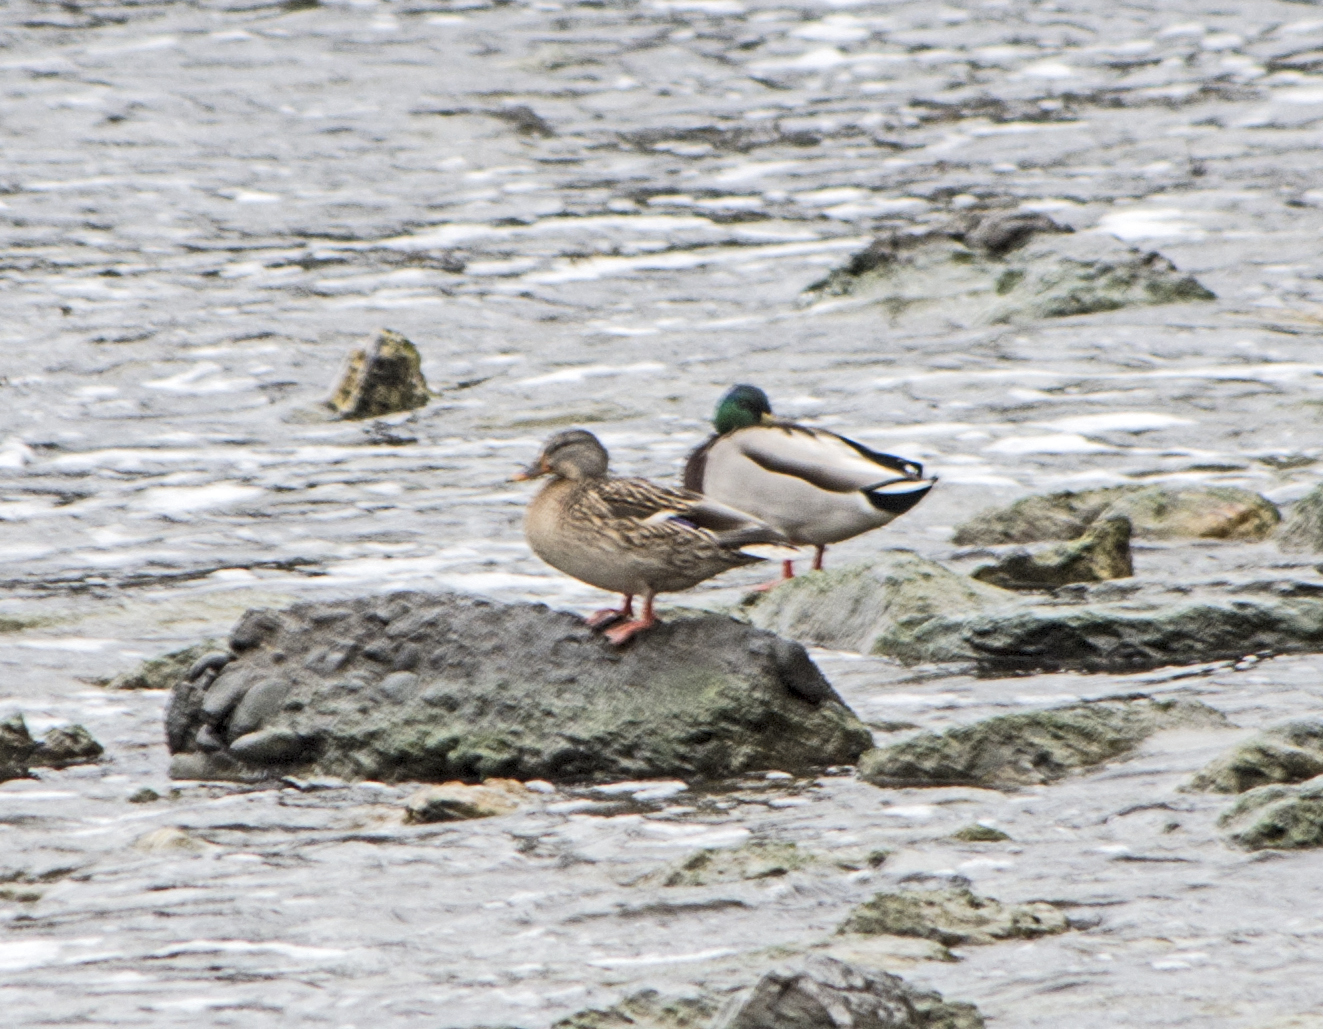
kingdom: Animalia
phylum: Chordata
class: Aves
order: Anseriformes
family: Anatidae
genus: Anas
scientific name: Anas platyrhynchos
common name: Mallard
